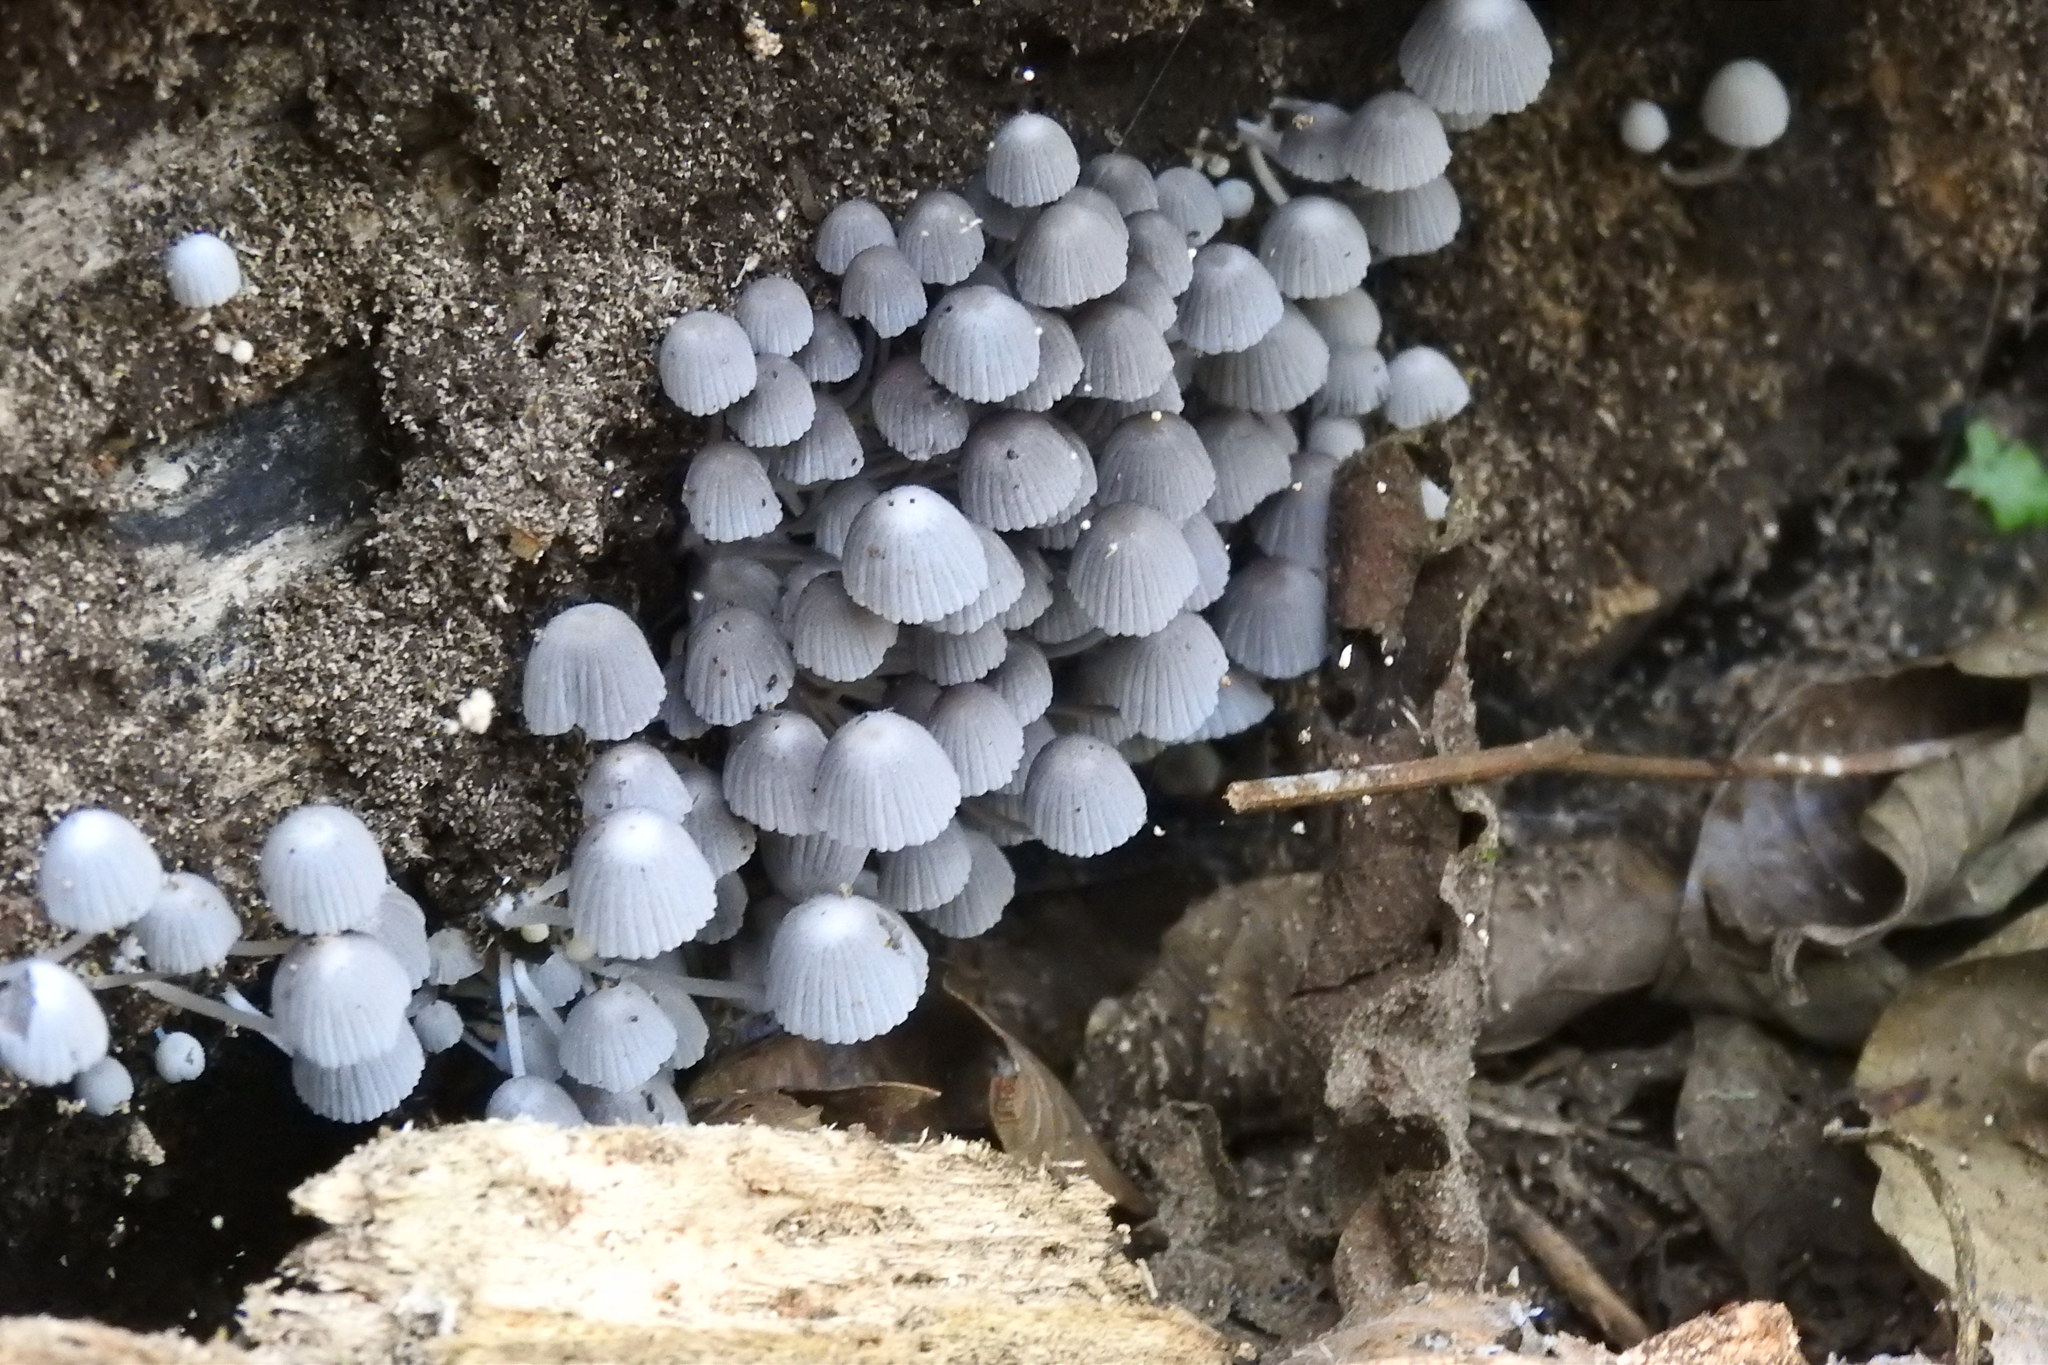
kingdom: Fungi
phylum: Basidiomycota
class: Agaricomycetes
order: Agaricales
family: Psathyrellaceae
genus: Coprinellus
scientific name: Coprinellus disseminatus
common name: Fairies' bonnets
